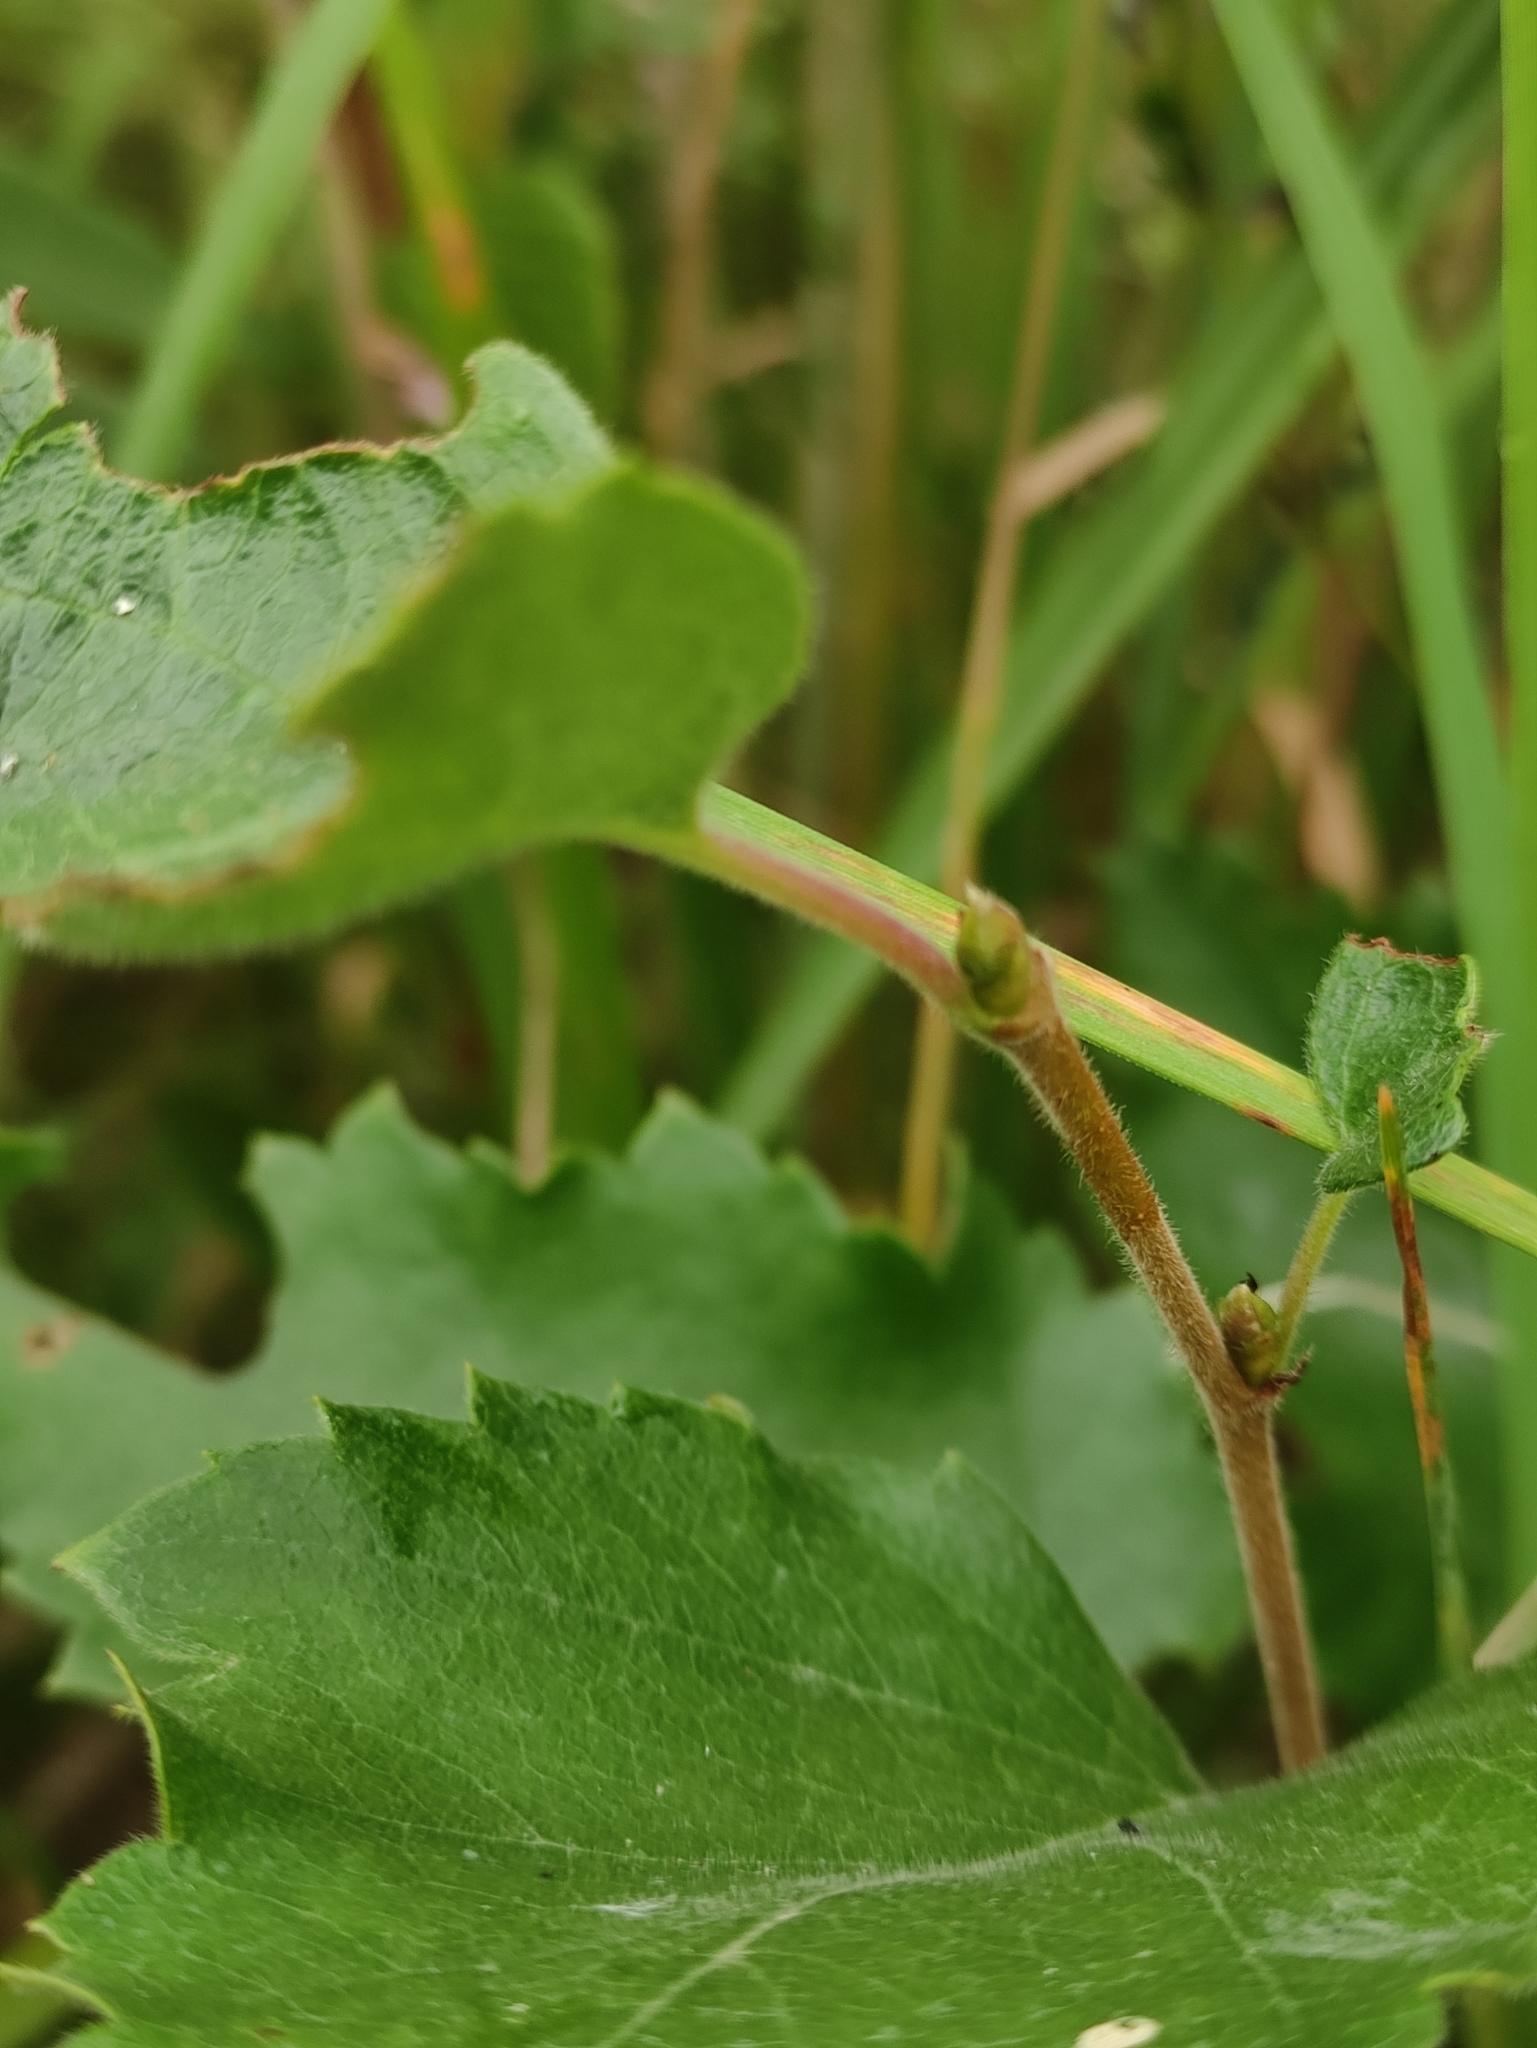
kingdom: Plantae
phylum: Tracheophyta
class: Magnoliopsida
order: Fagales
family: Betulaceae
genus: Betula
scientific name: Betula pubescens
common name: Downy birch
